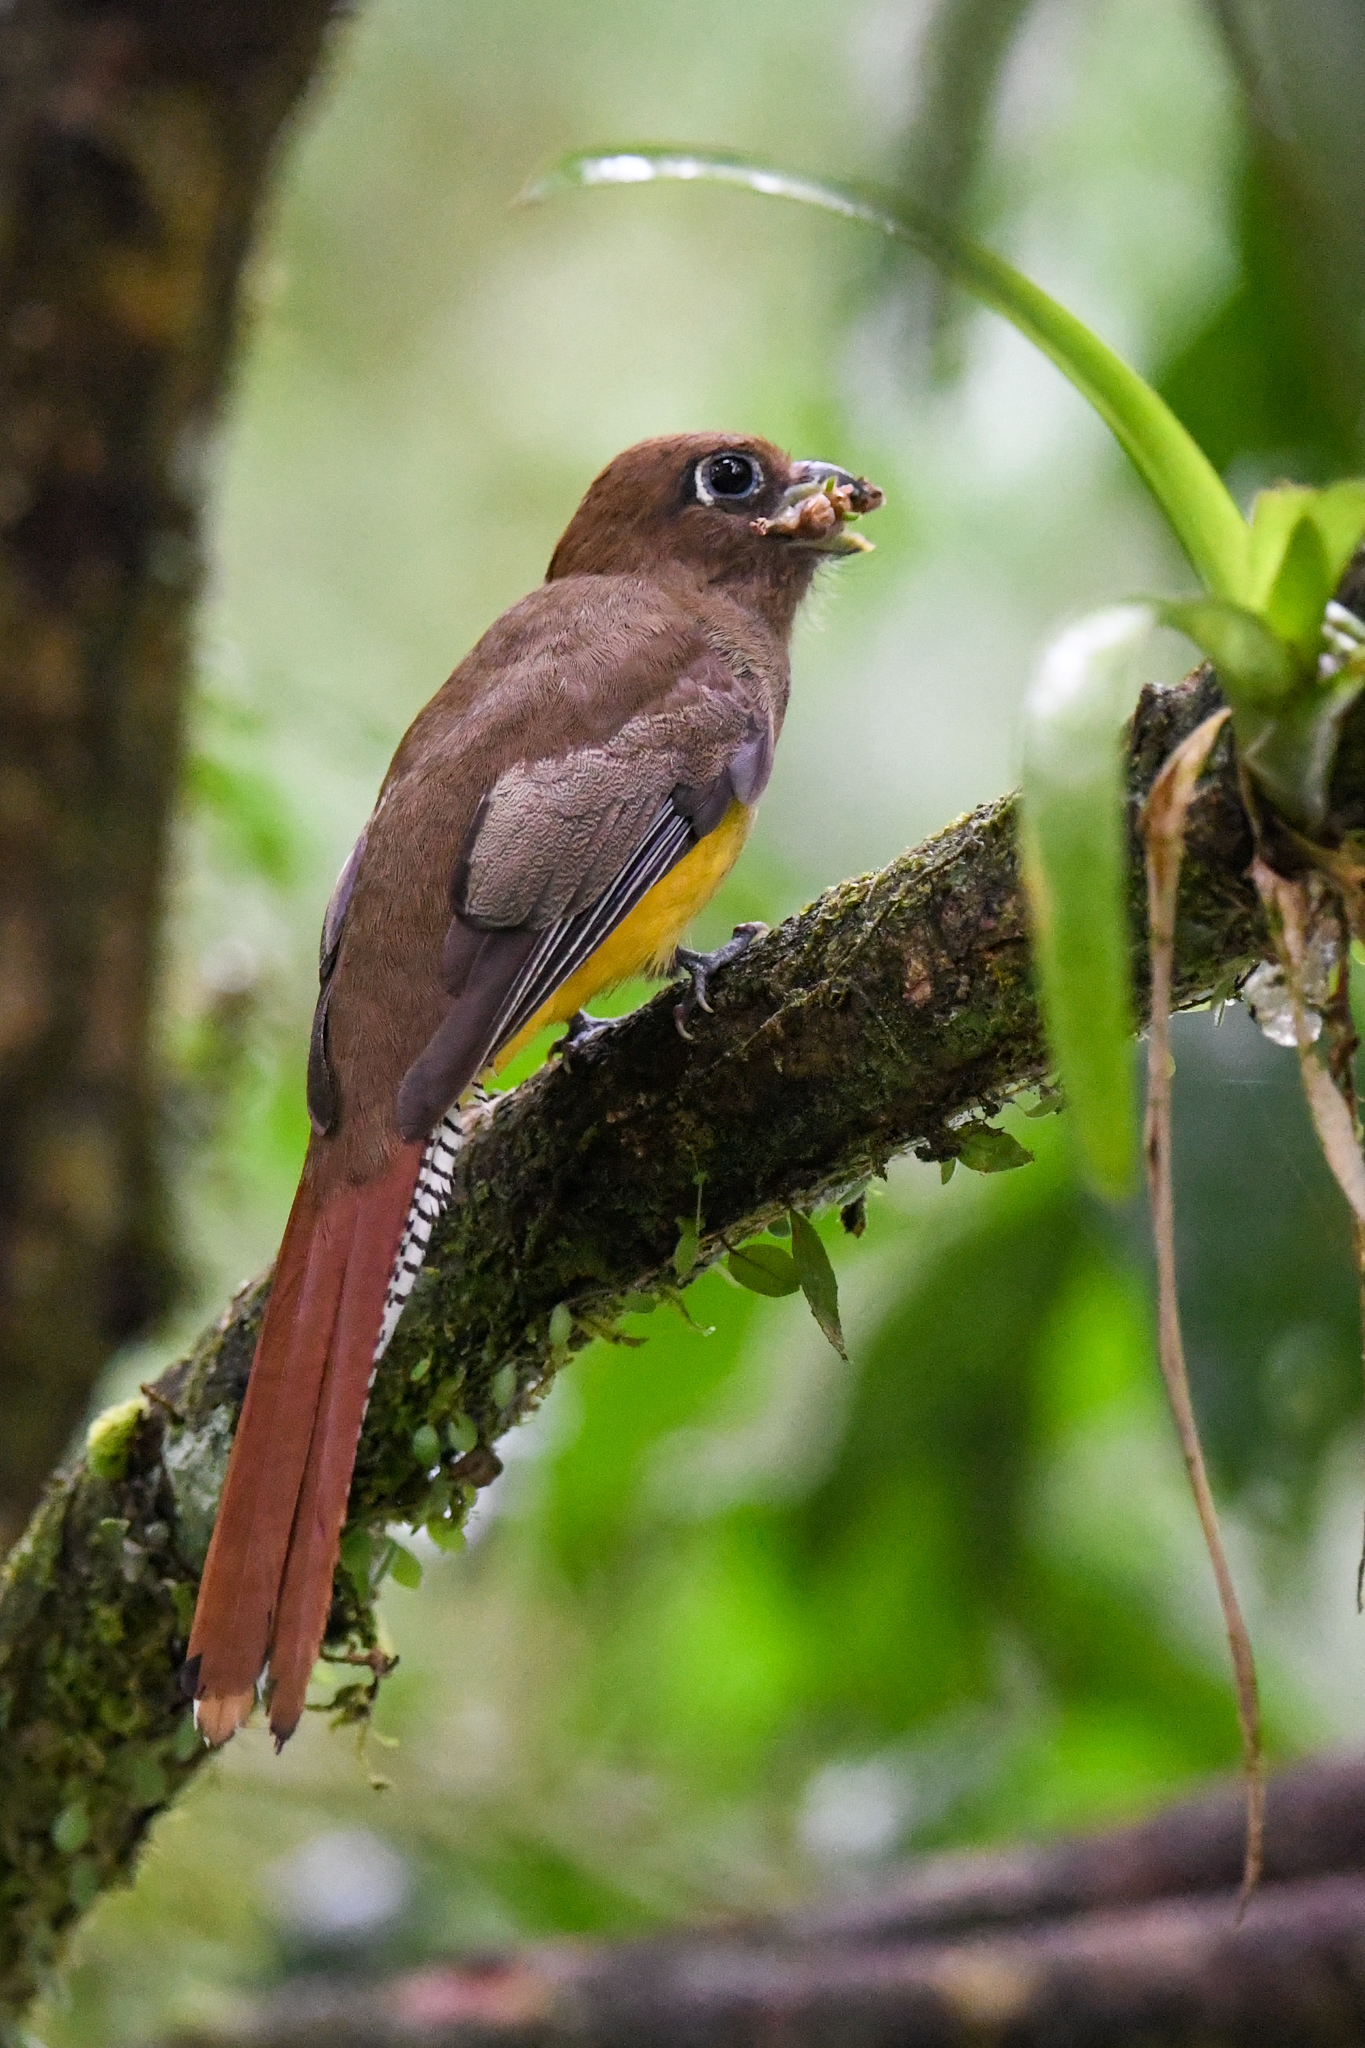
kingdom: Animalia
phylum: Chordata
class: Aves
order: Trogoniformes
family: Trogonidae
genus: Trogon
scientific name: Trogon rufus
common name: Black-throated trogon
